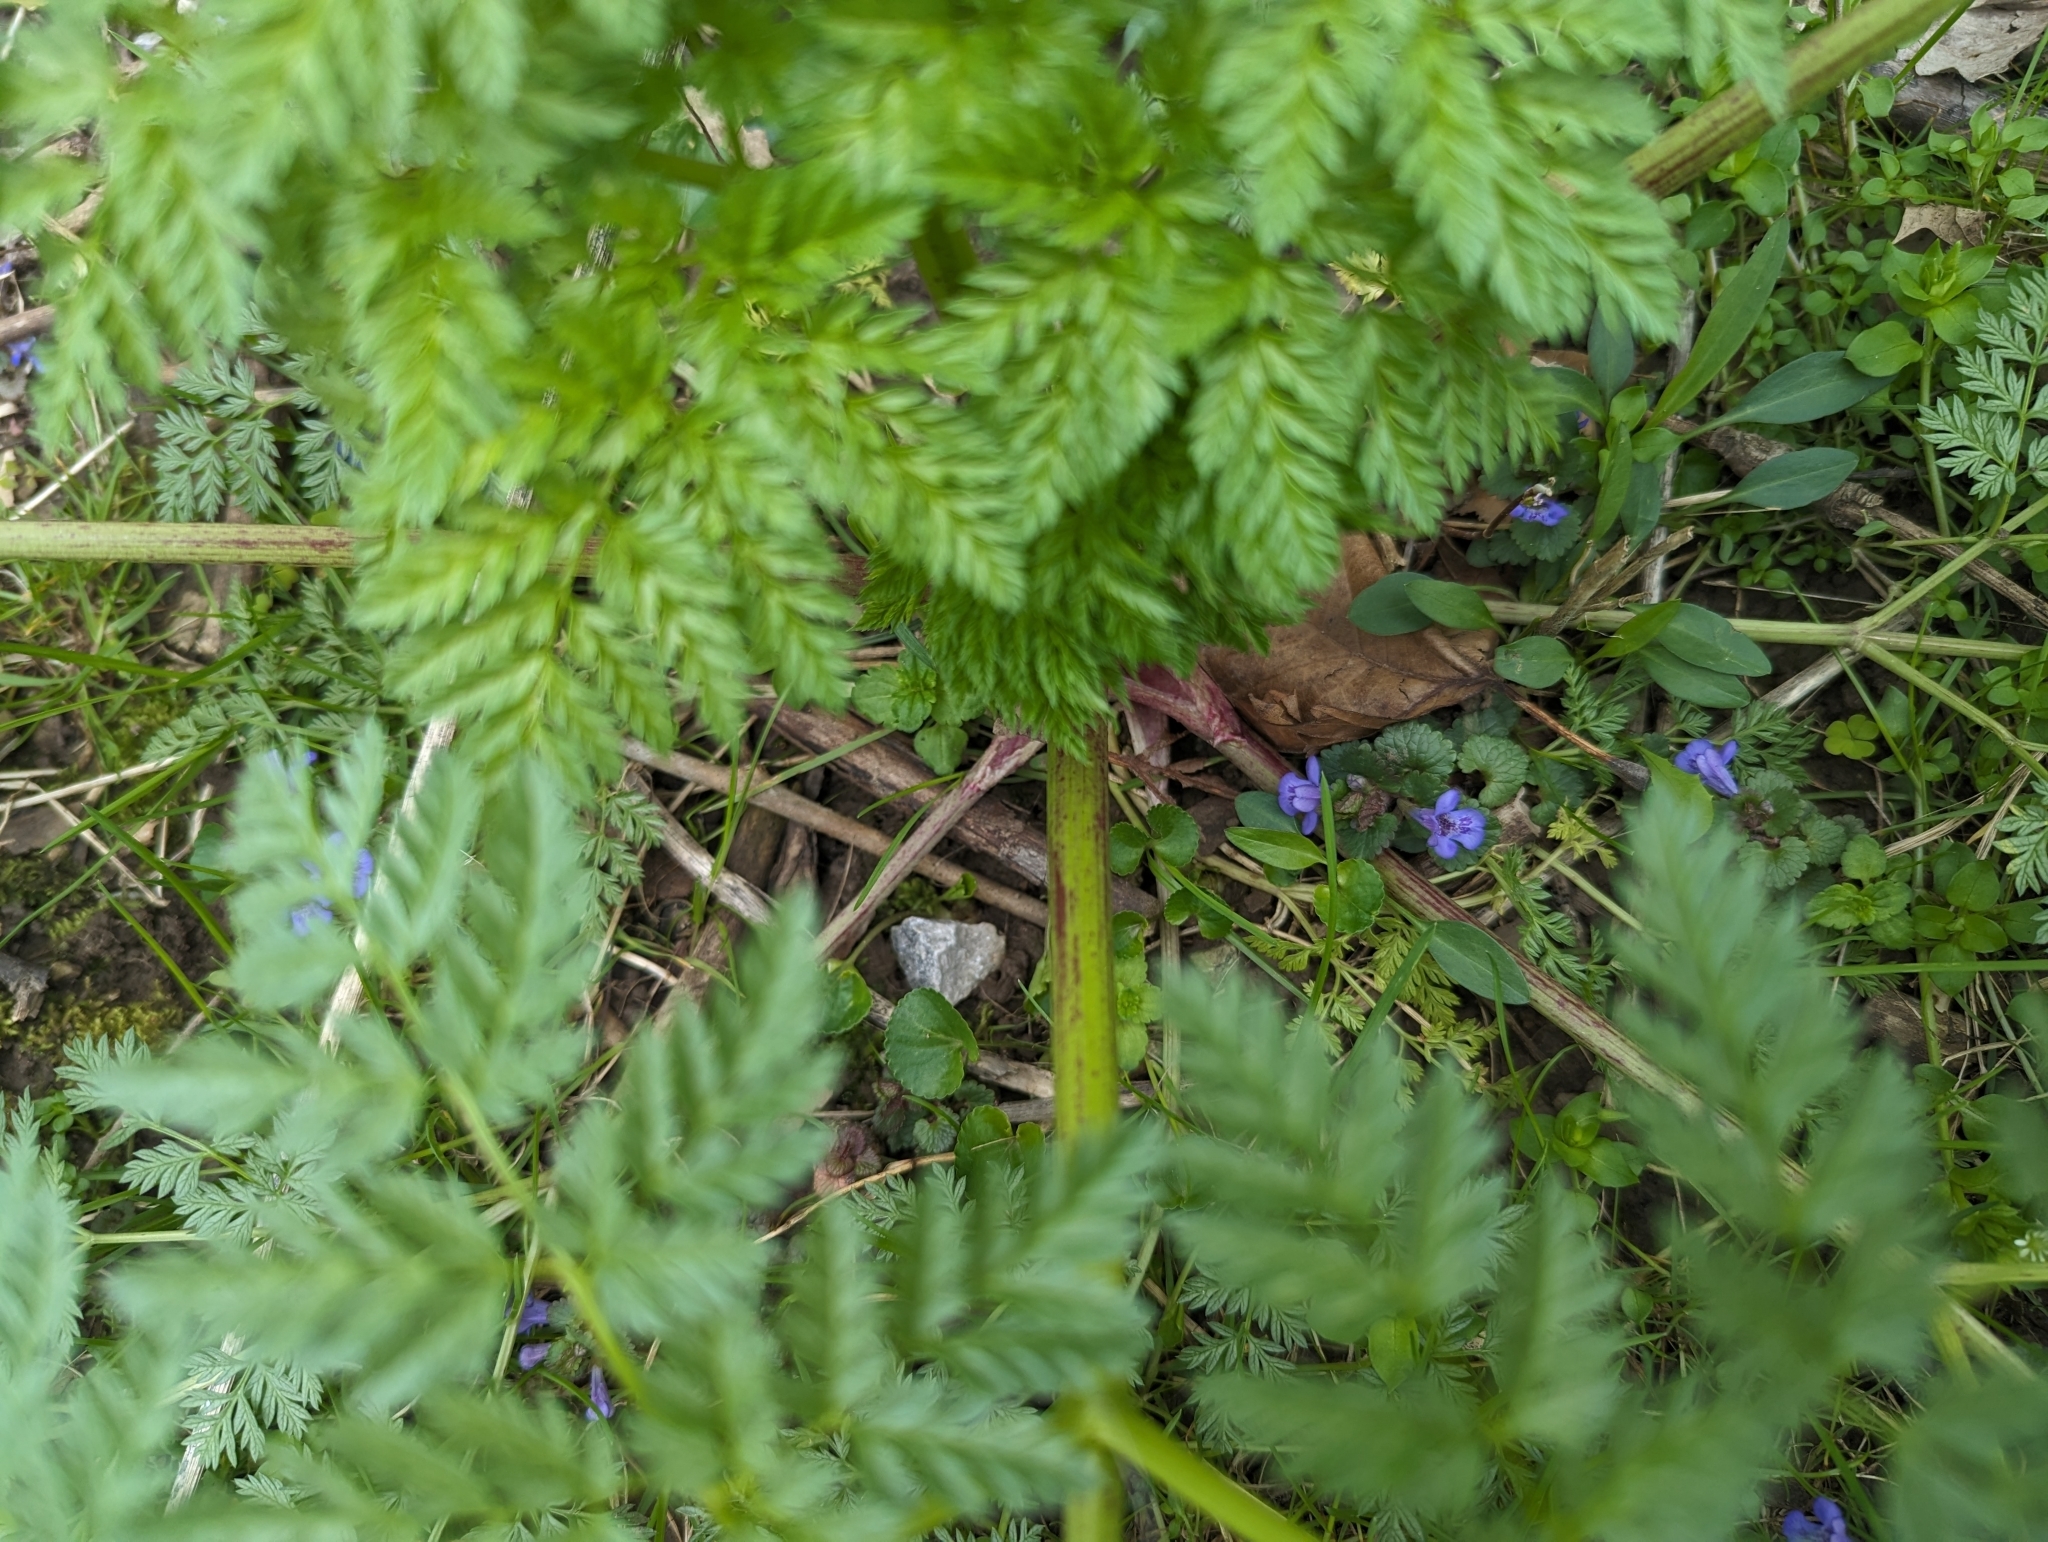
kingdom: Plantae
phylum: Tracheophyta
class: Magnoliopsida
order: Apiales
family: Apiaceae
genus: Conium
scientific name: Conium maculatum
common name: Hemlock
